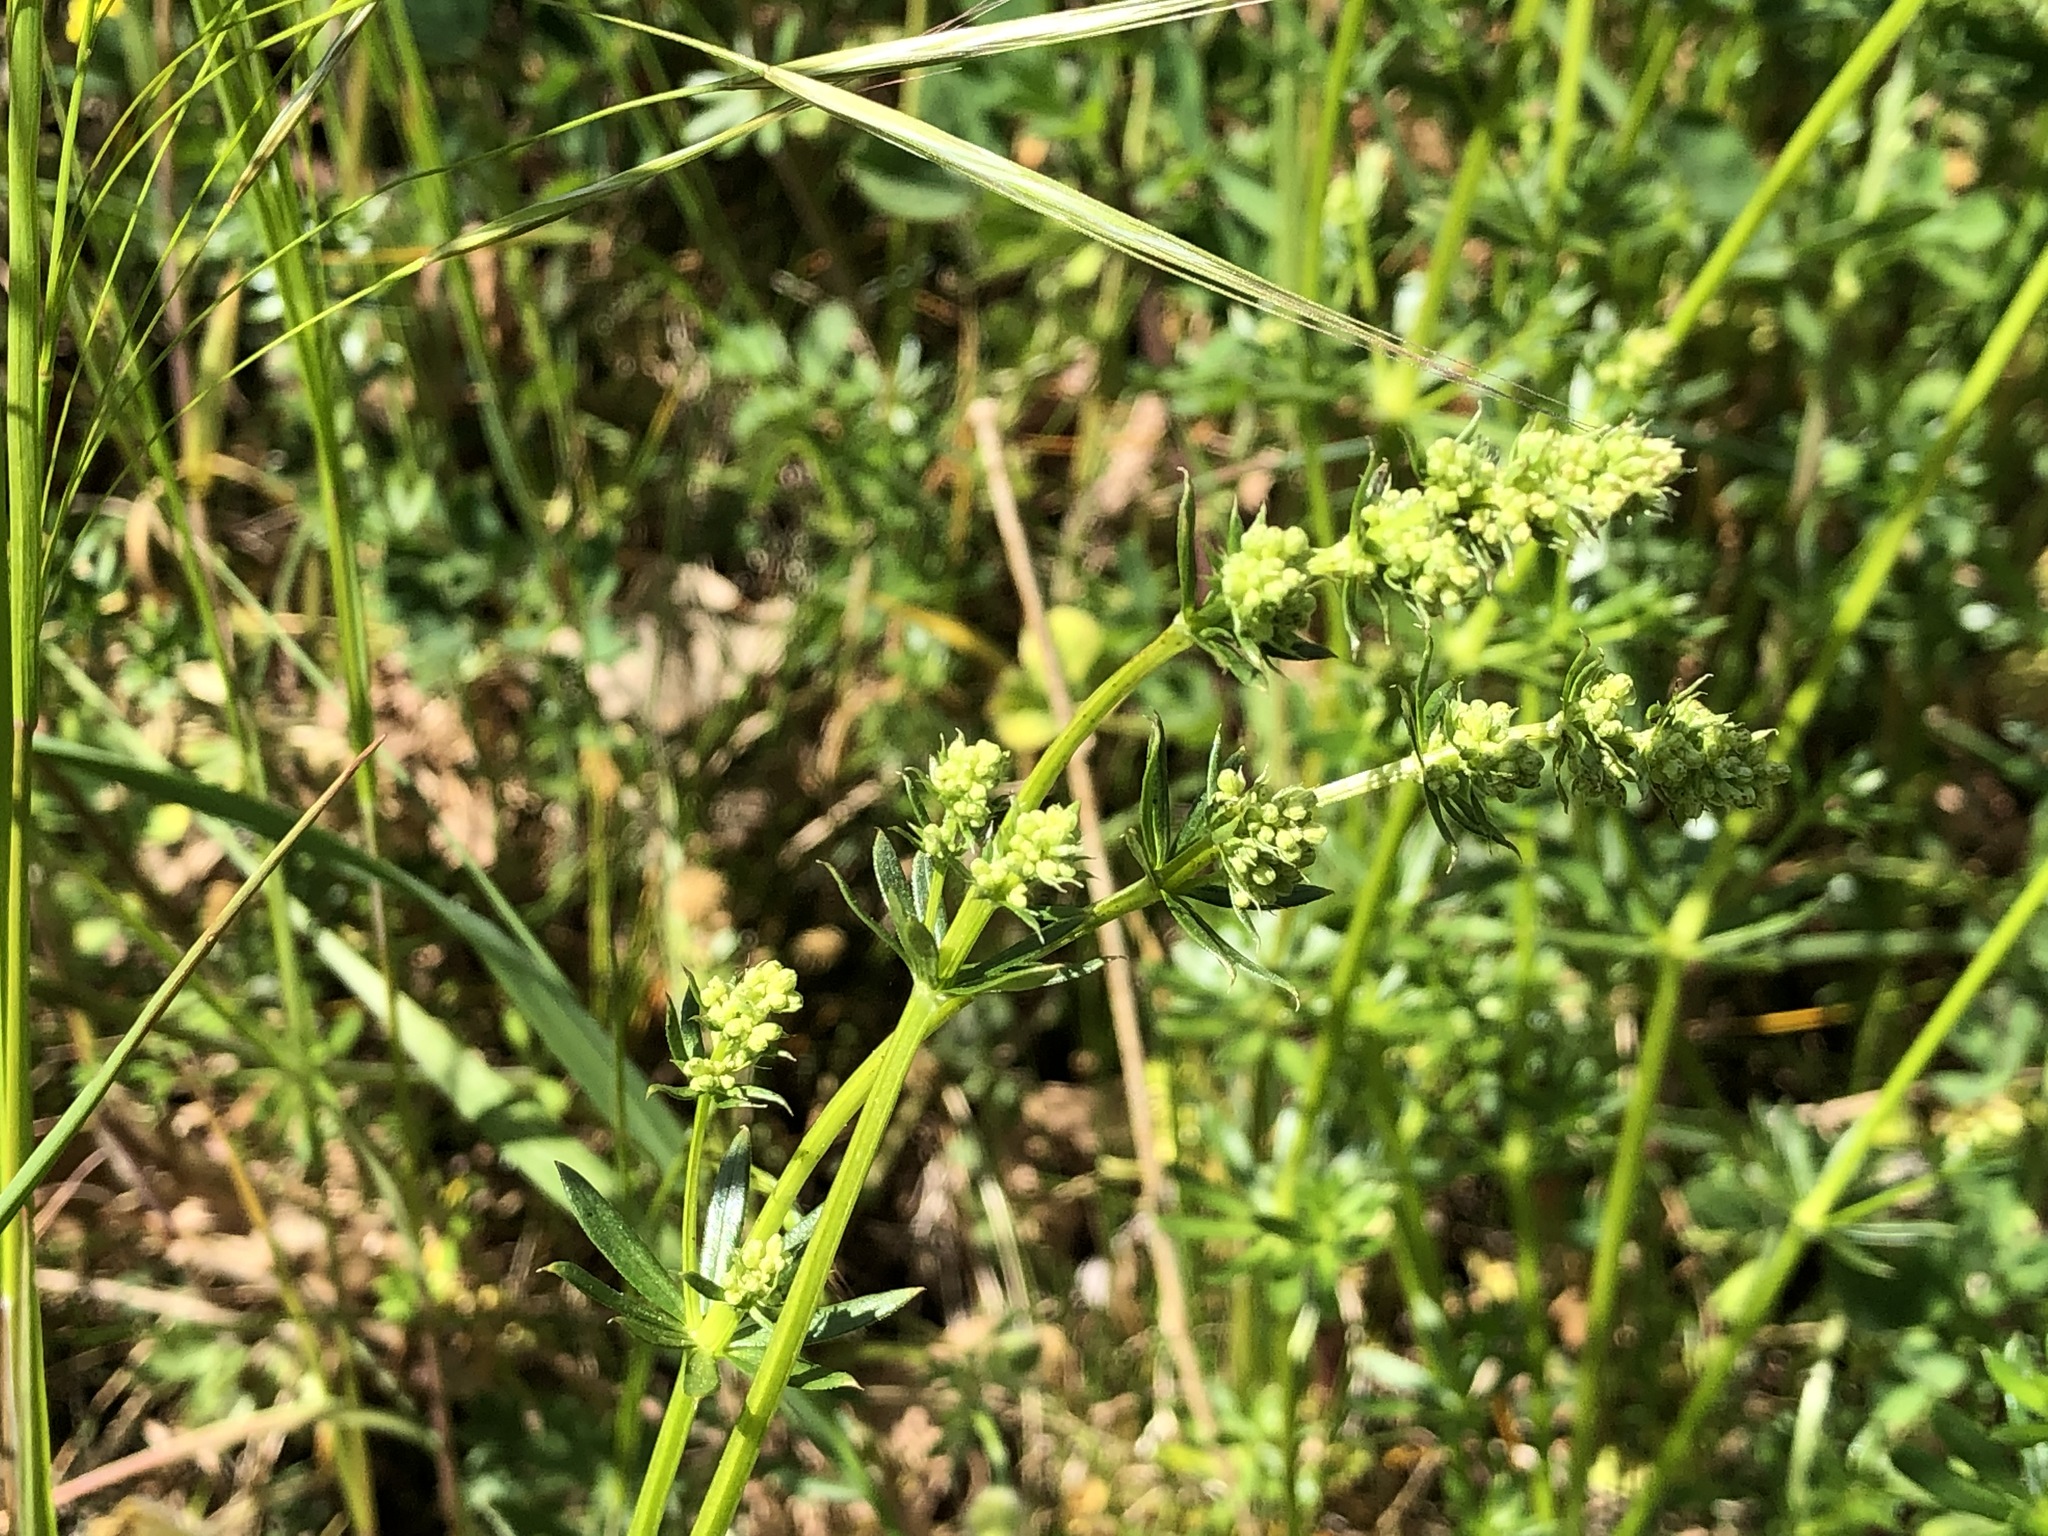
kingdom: Plantae
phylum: Tracheophyta
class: Magnoliopsida
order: Gentianales
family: Rubiaceae
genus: Galium
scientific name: Galium mollugo
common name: Hedge bedstraw
